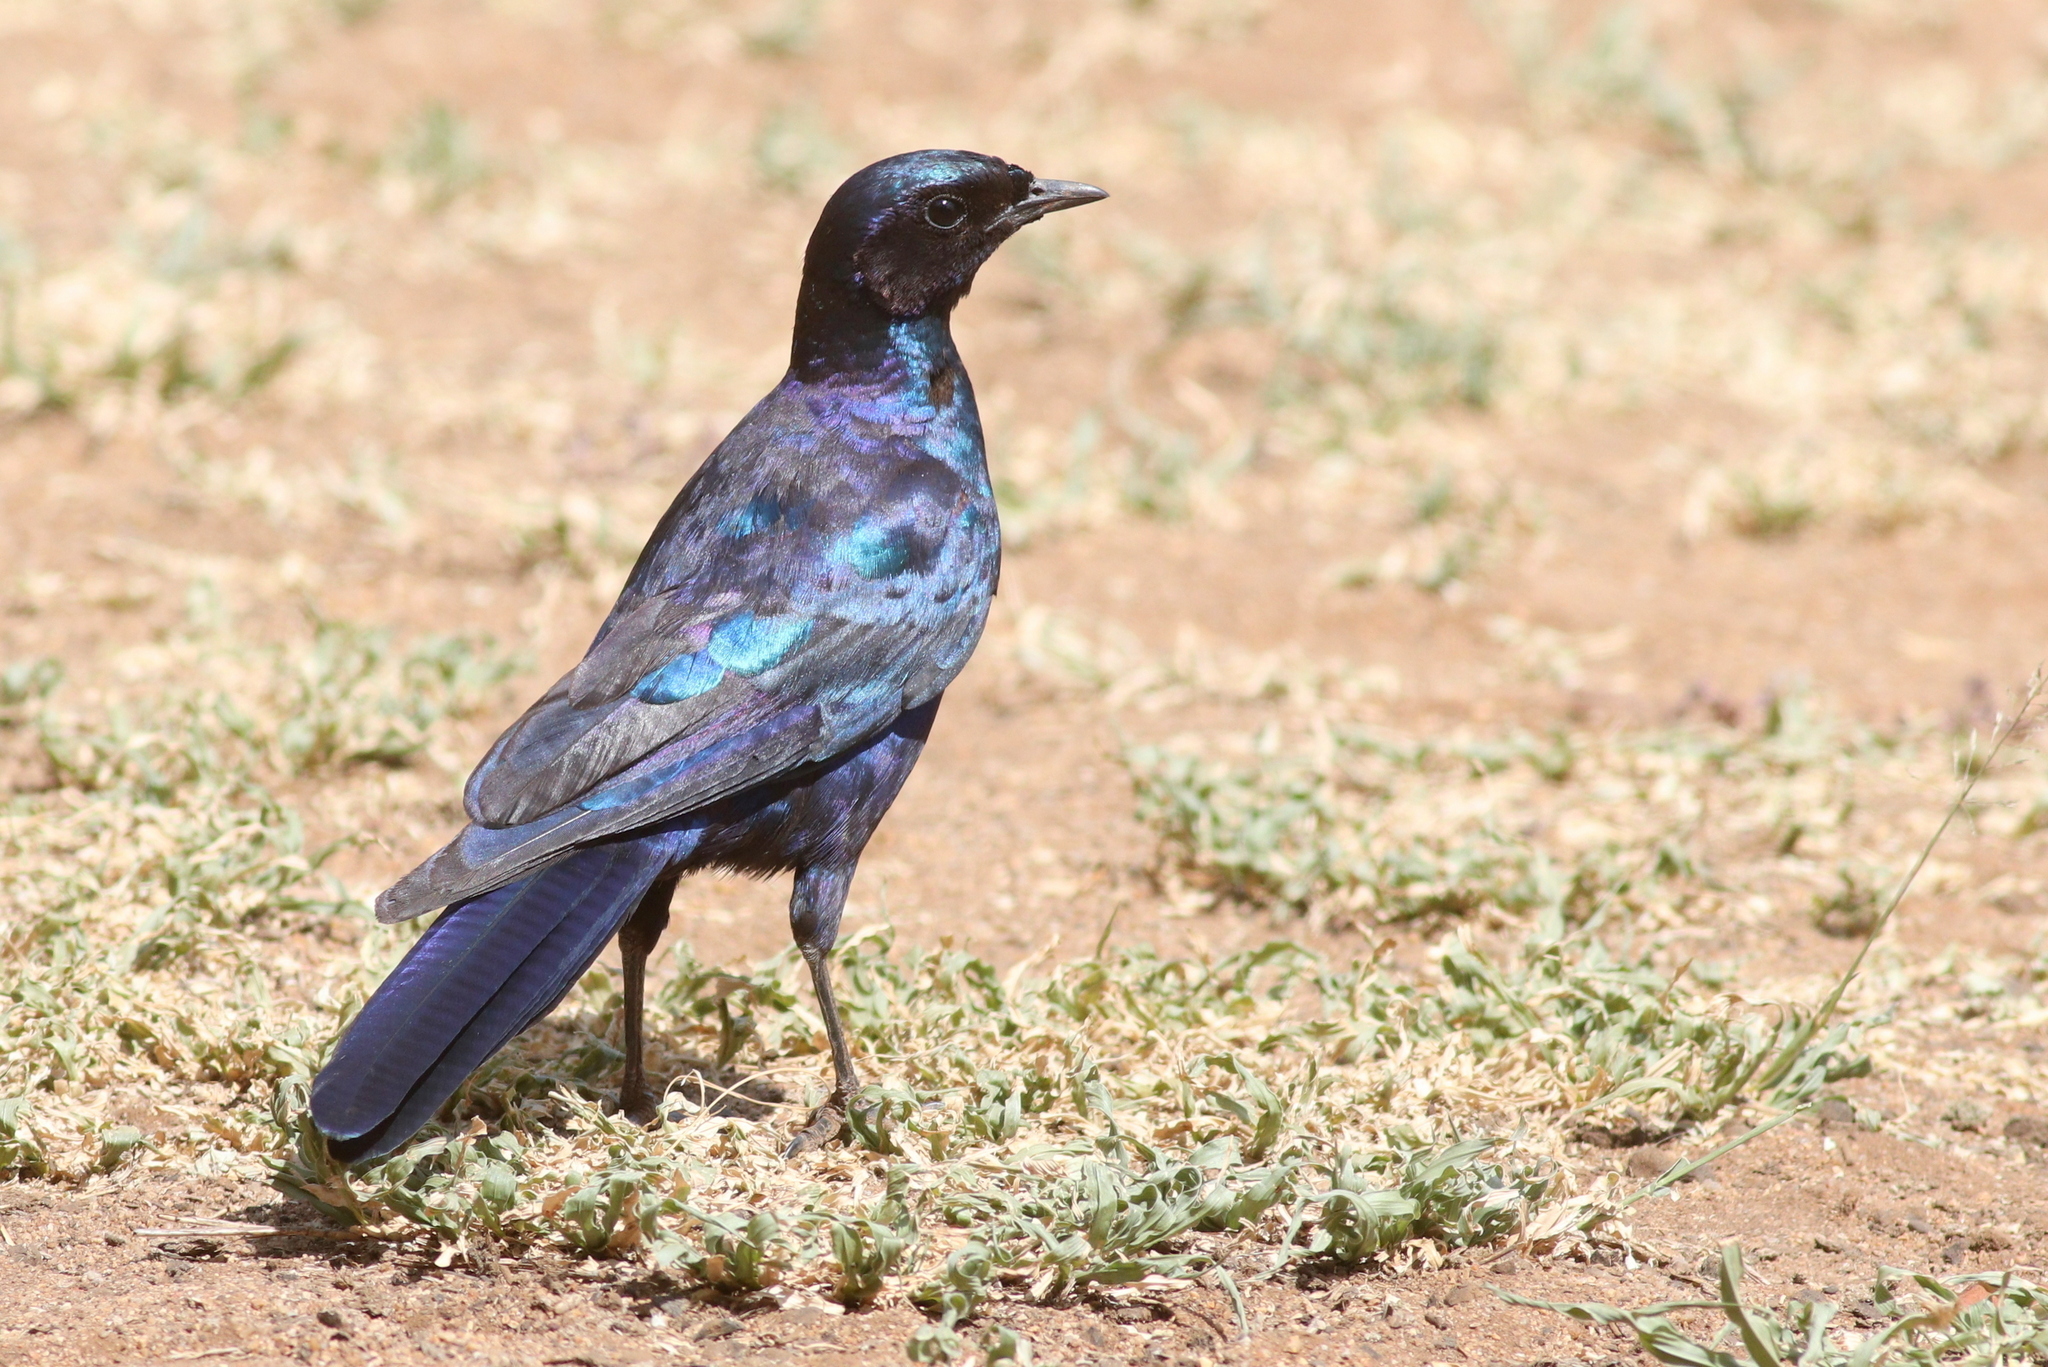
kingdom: Animalia
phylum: Chordata
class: Aves
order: Passeriformes
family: Sturnidae
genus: Lamprotornis
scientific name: Lamprotornis australis
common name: Burchell's starling
